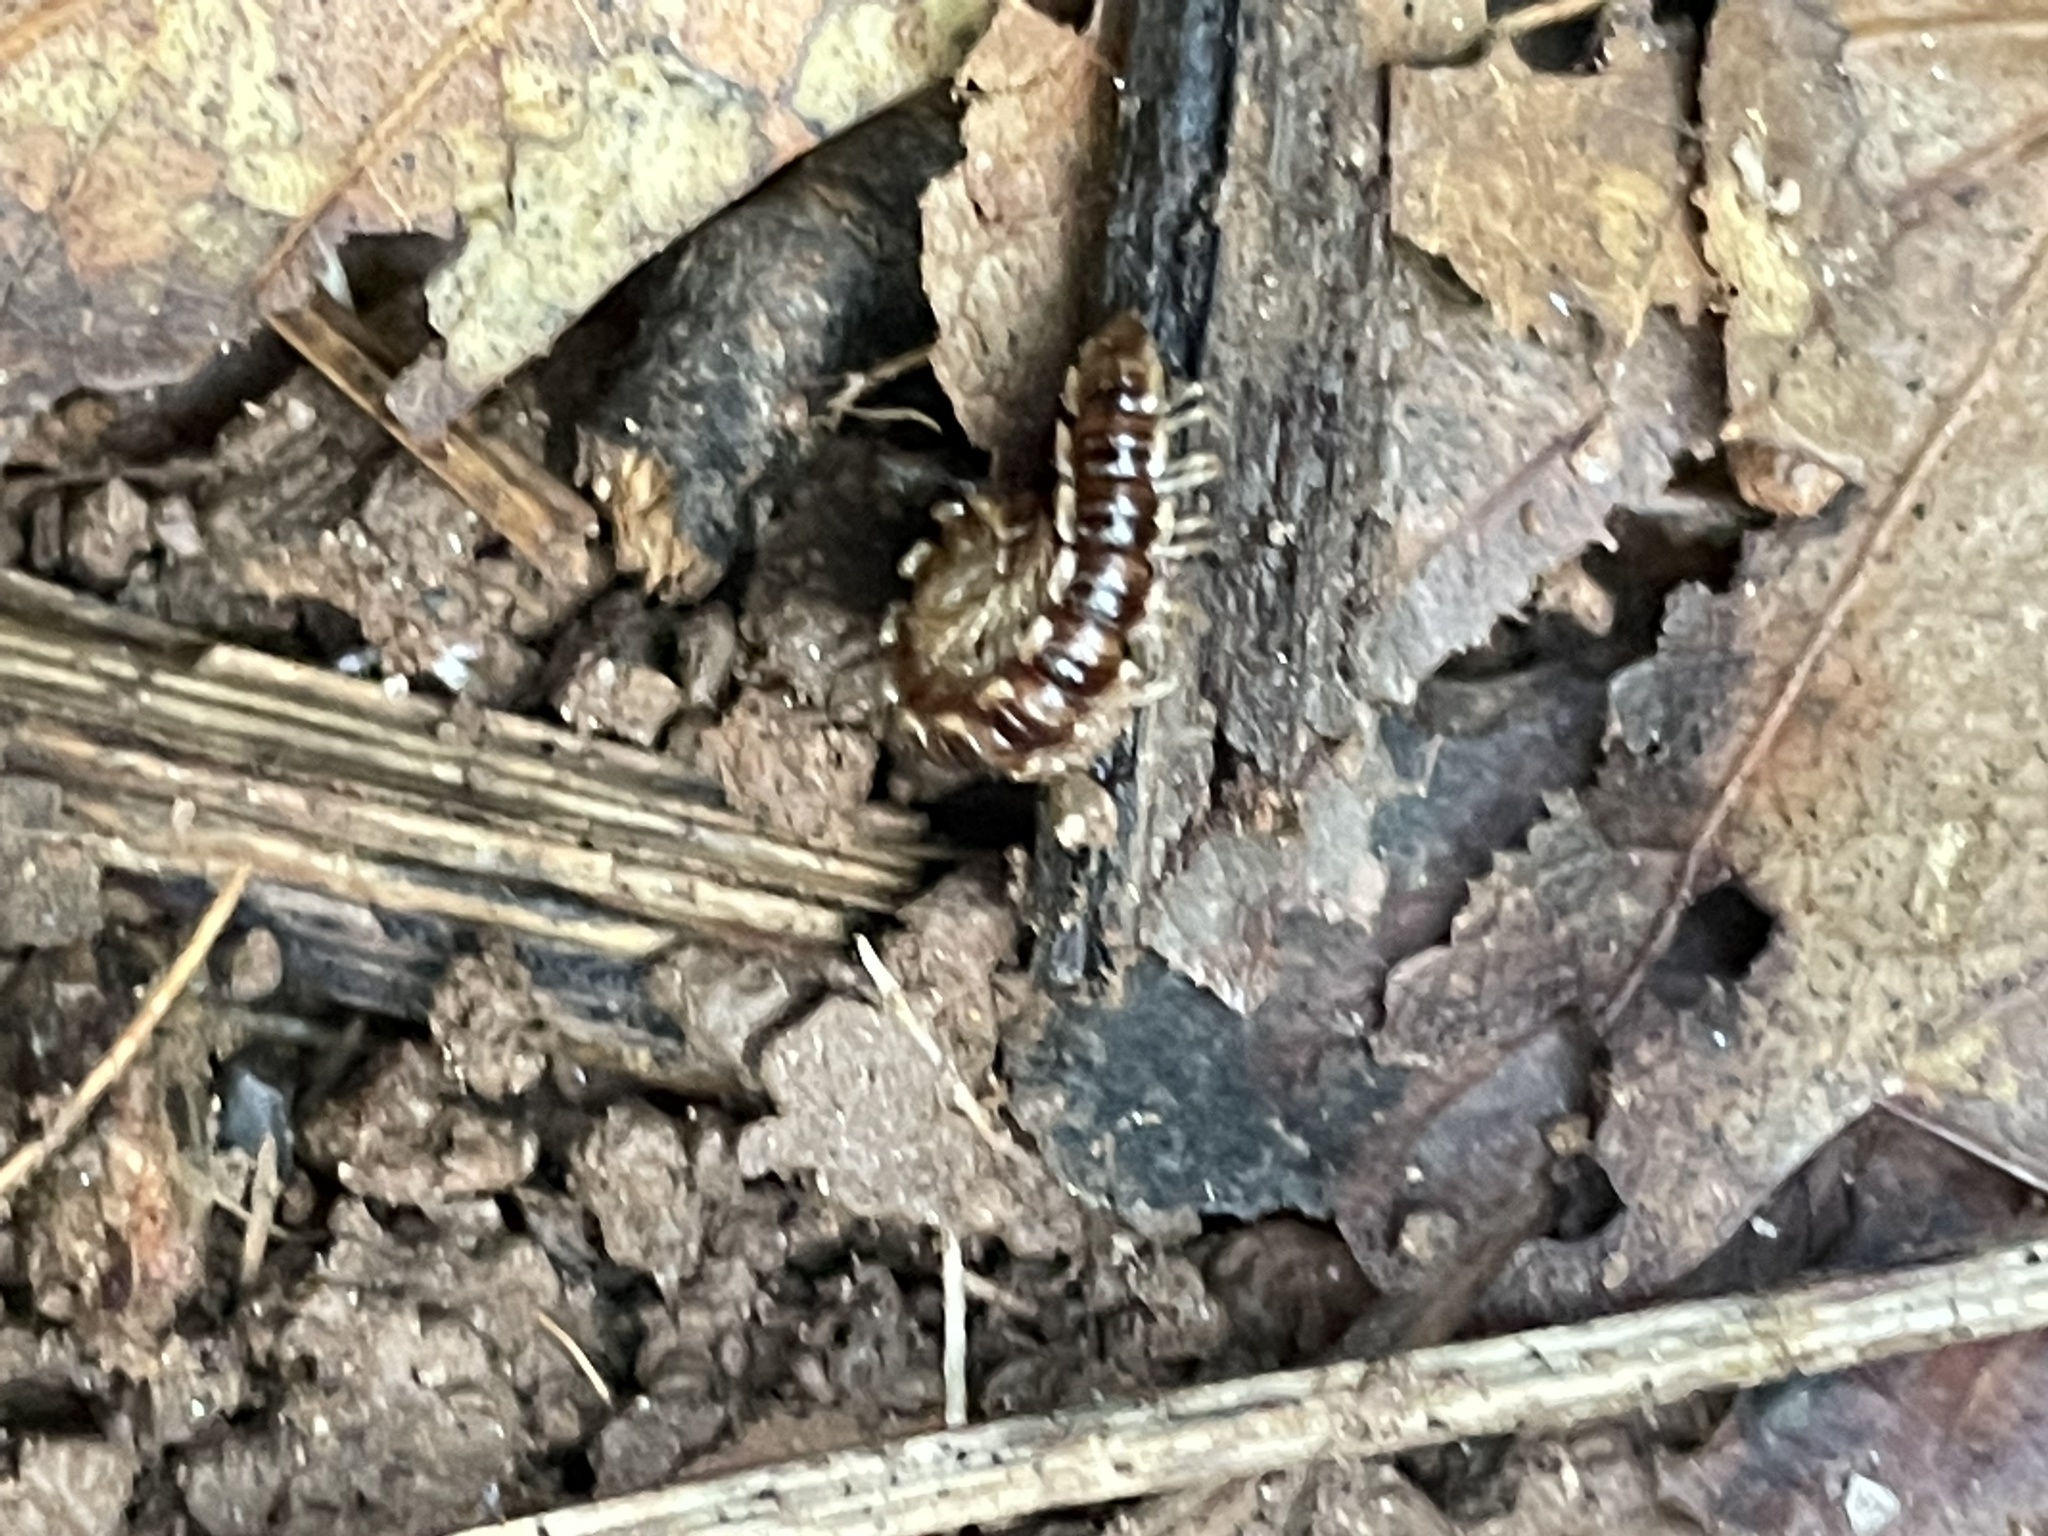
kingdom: Animalia
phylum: Arthropoda
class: Diplopoda
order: Polydesmida
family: Paradoxosomatidae
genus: Oxidus
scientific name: Oxidus gracilis
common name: Greenhouse millipede
